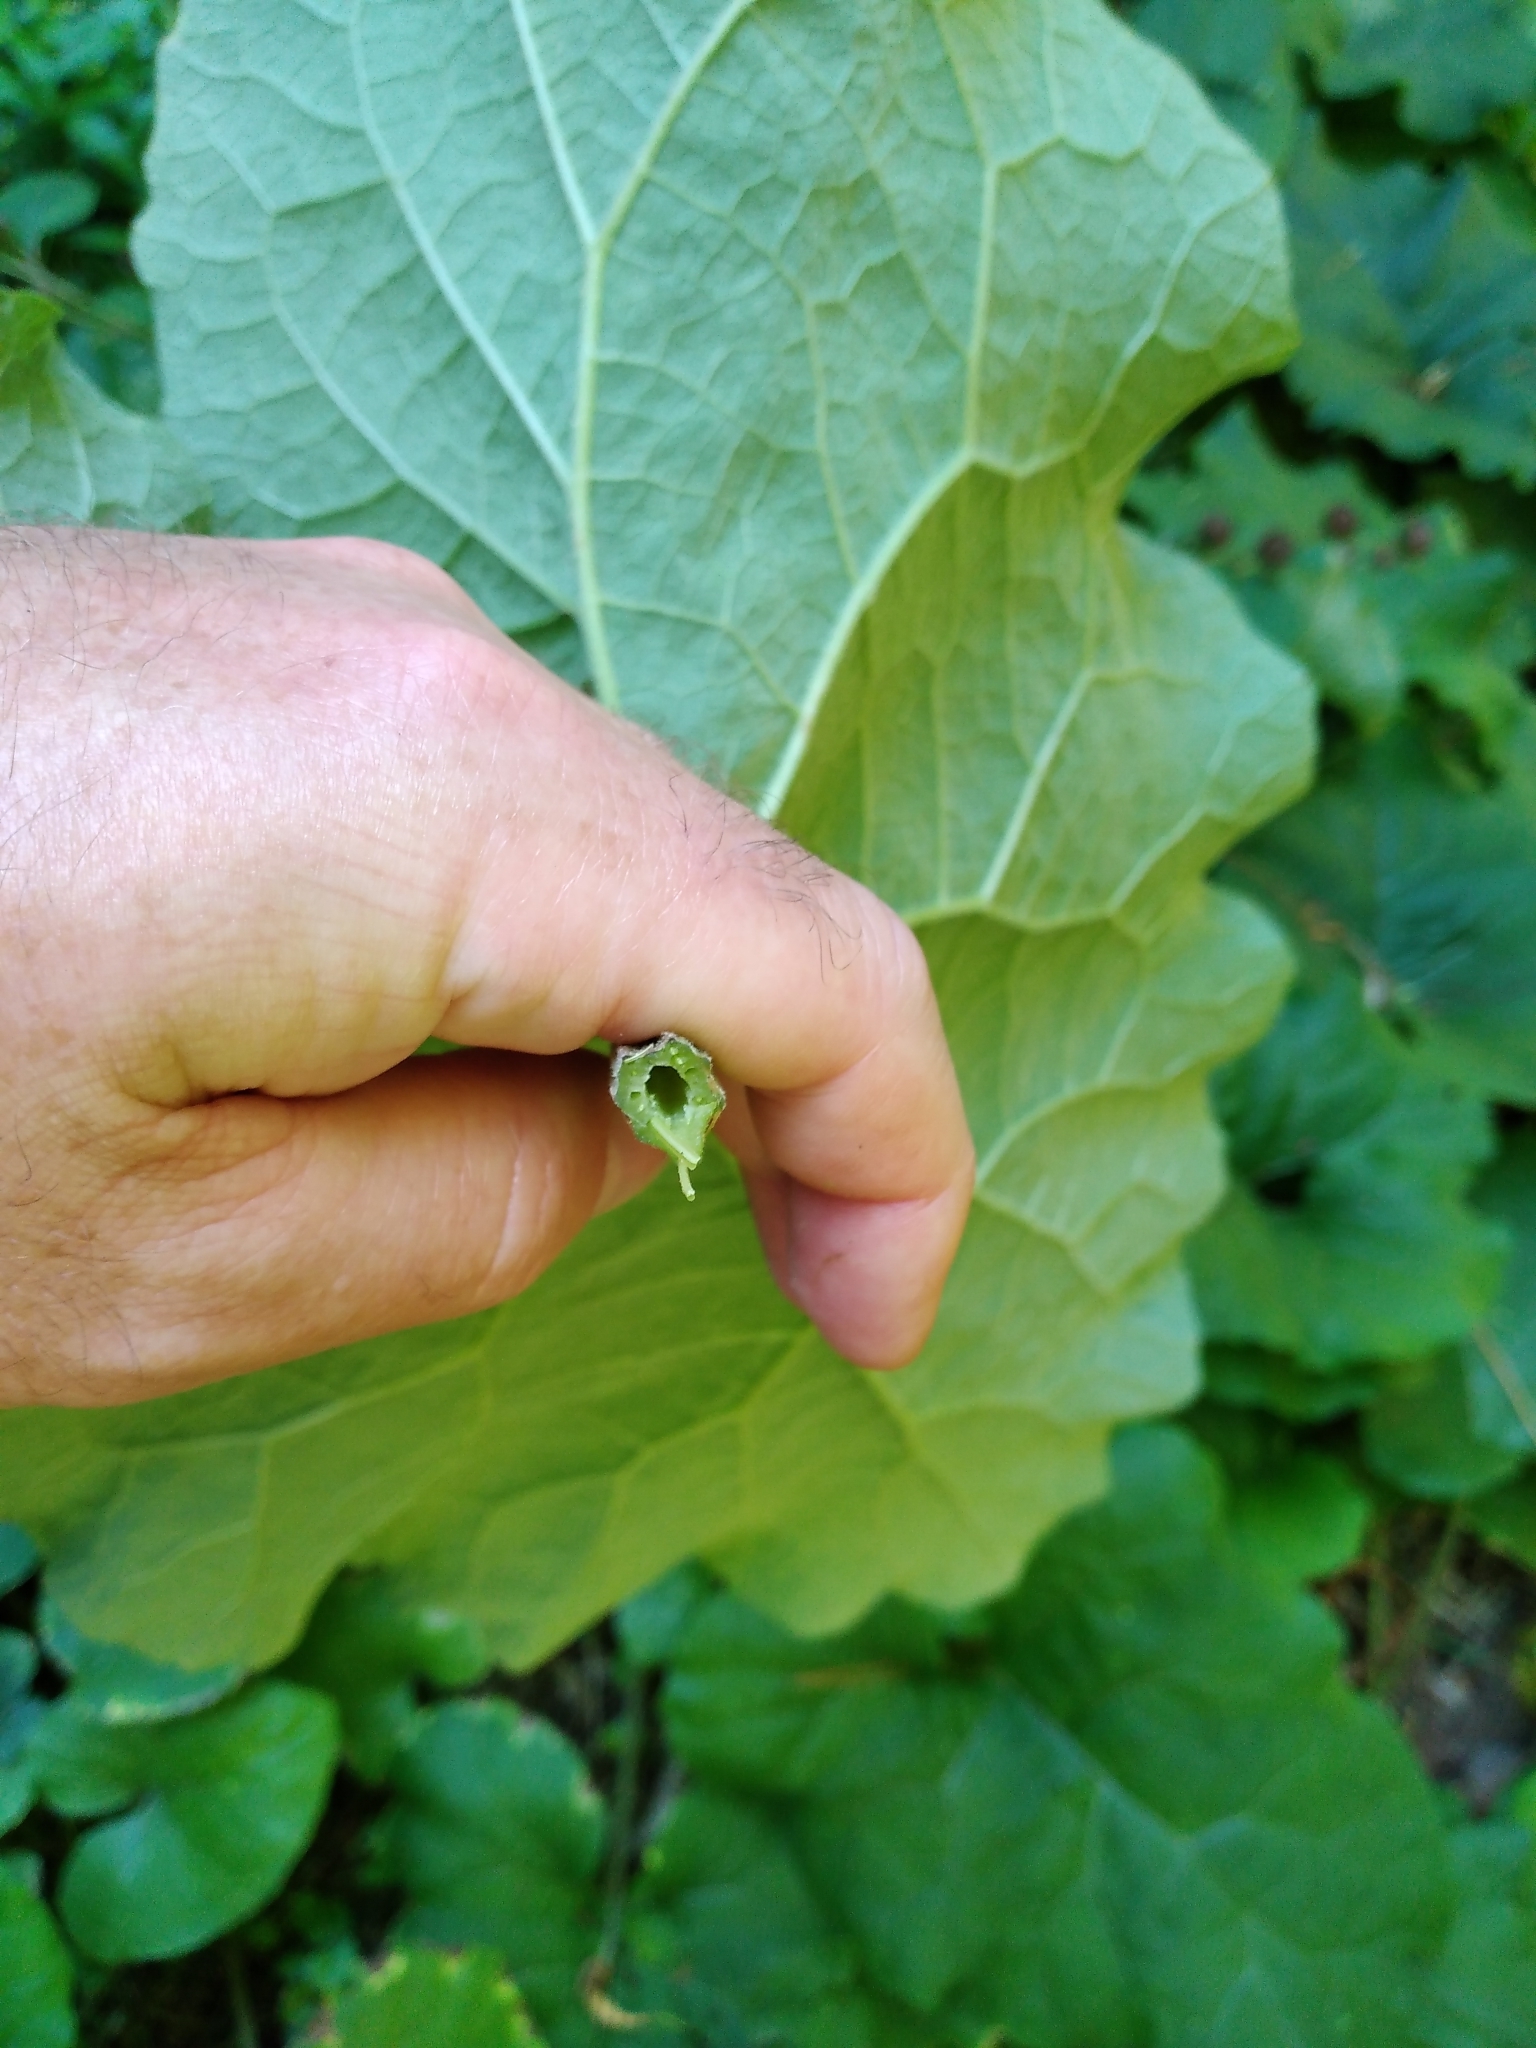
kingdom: Plantae
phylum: Tracheophyta
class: Magnoliopsida
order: Asterales
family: Asteraceae
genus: Arctium
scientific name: Arctium minus
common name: Lesser burdock
